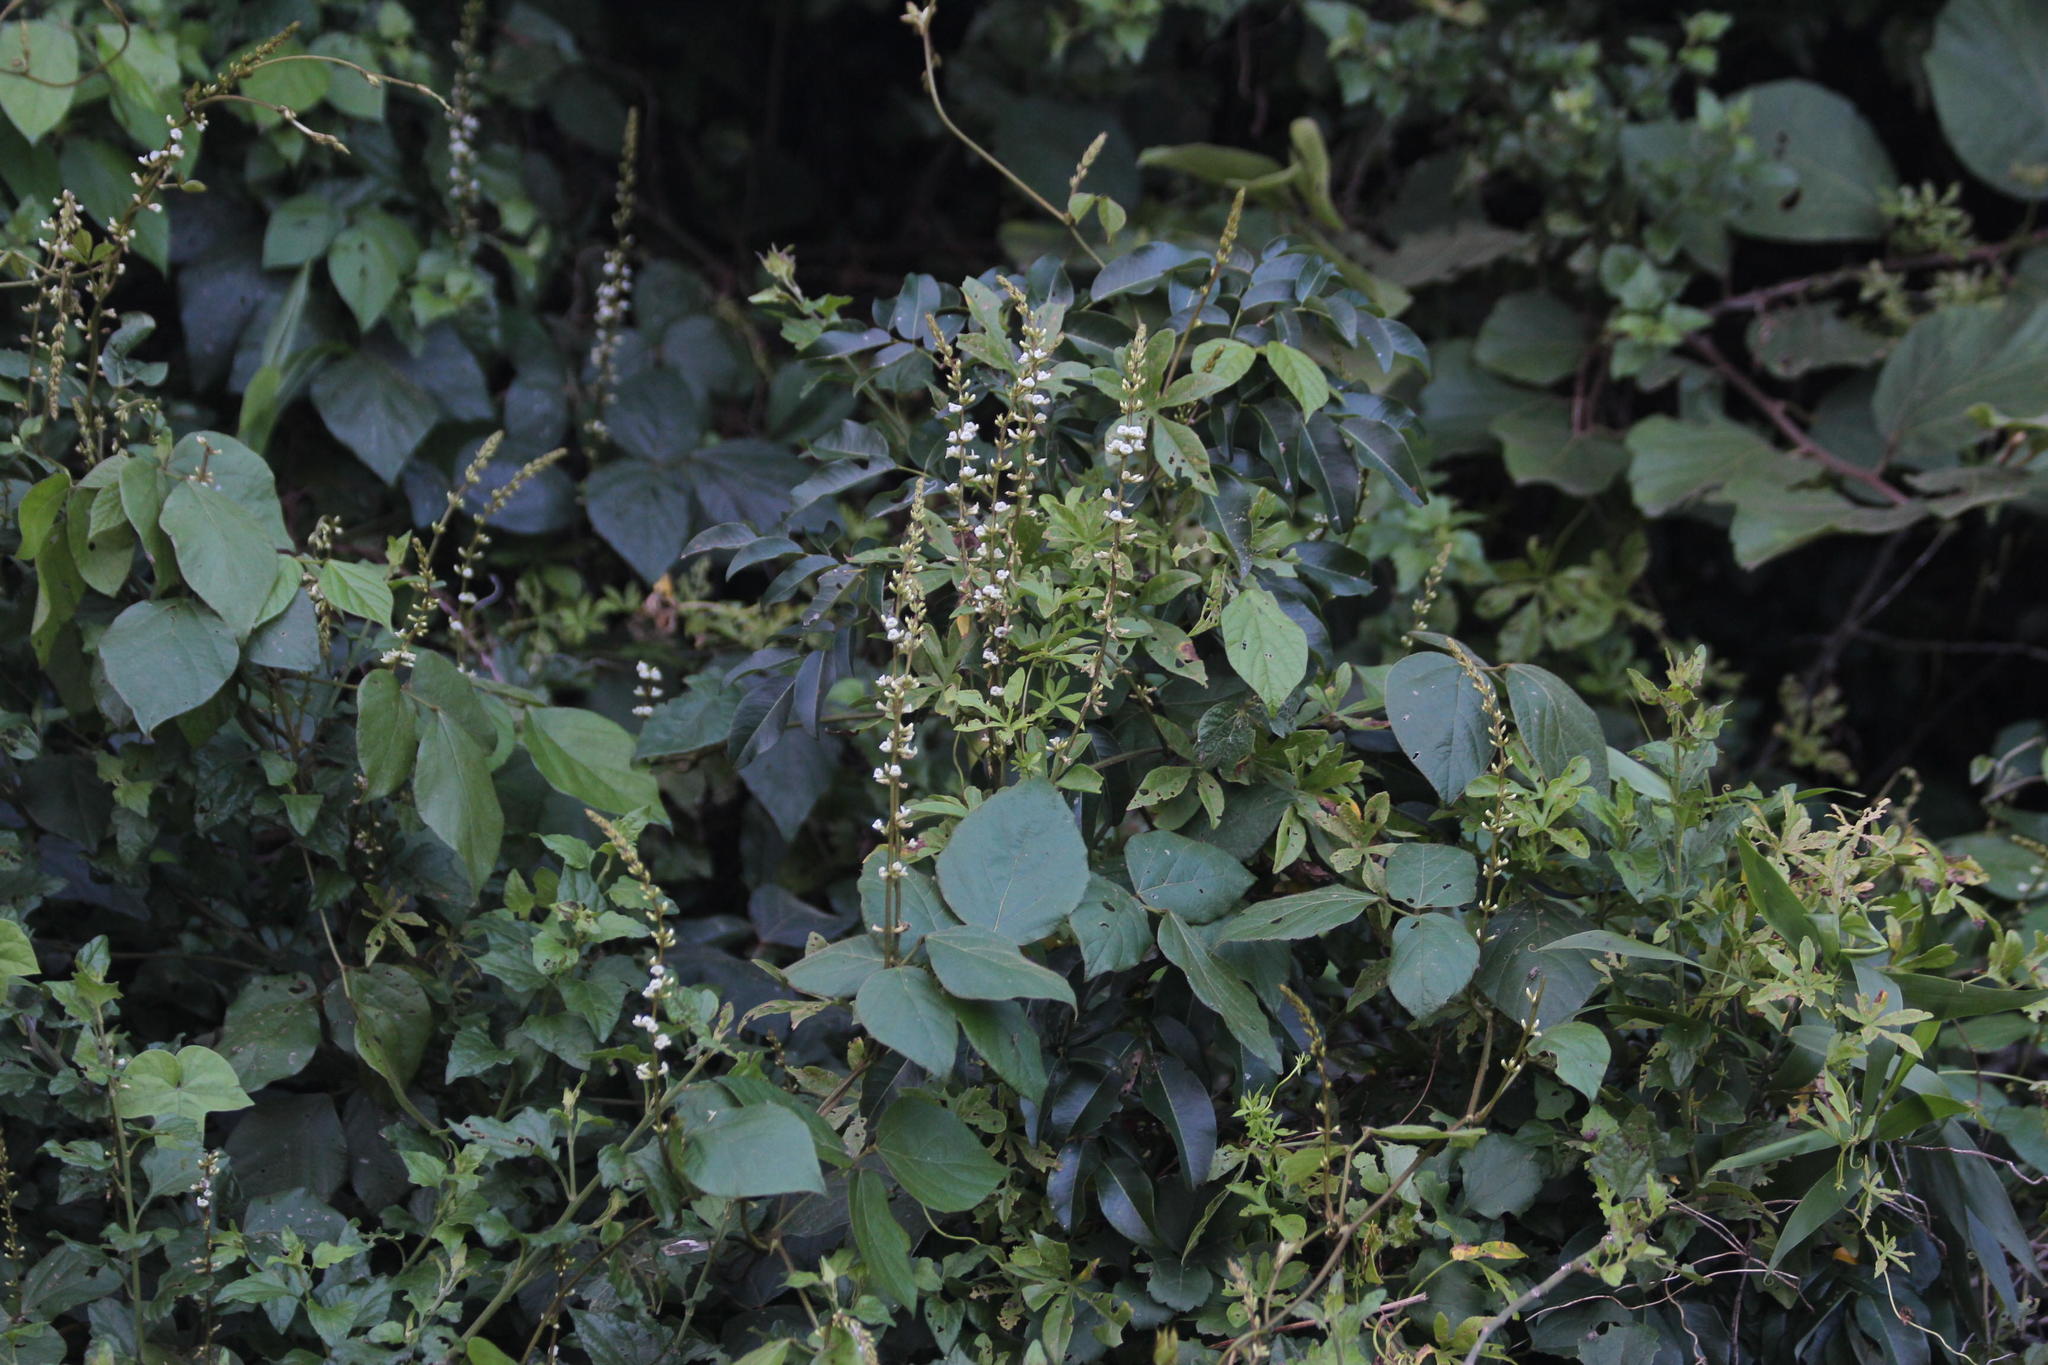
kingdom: Plantae
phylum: Tracheophyta
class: Magnoliopsida
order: Fabales
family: Fabaceae
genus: Neonotonia
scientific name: Neonotonia wightii
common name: Perennial soybean
